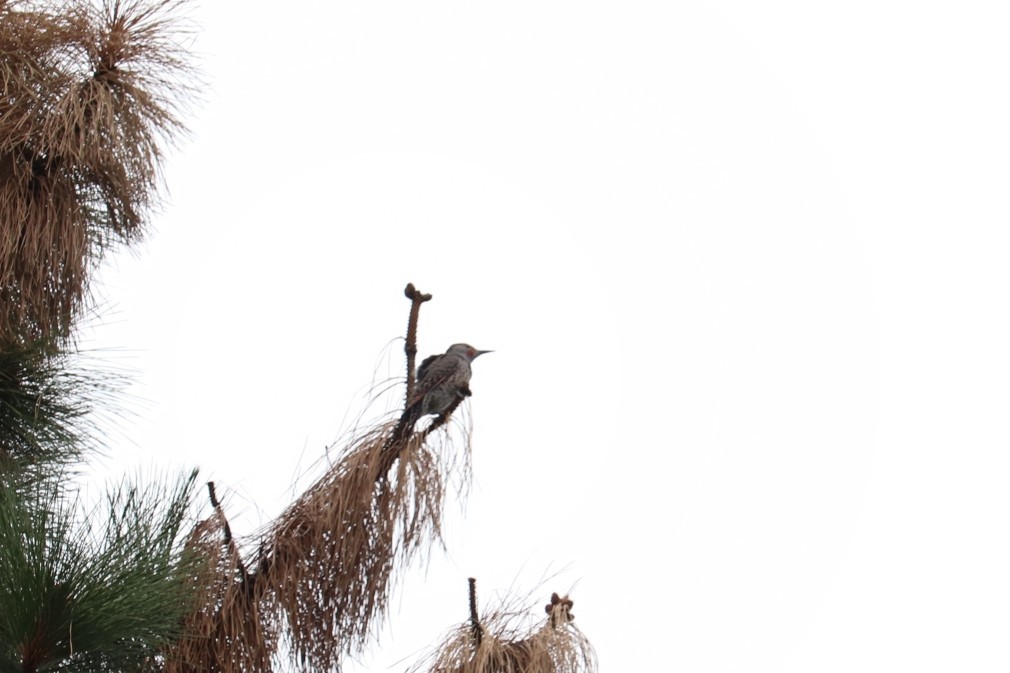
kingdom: Animalia
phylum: Chordata
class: Aves
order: Piciformes
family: Picidae
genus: Colaptes
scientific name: Colaptes auratus
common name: Northern flicker
